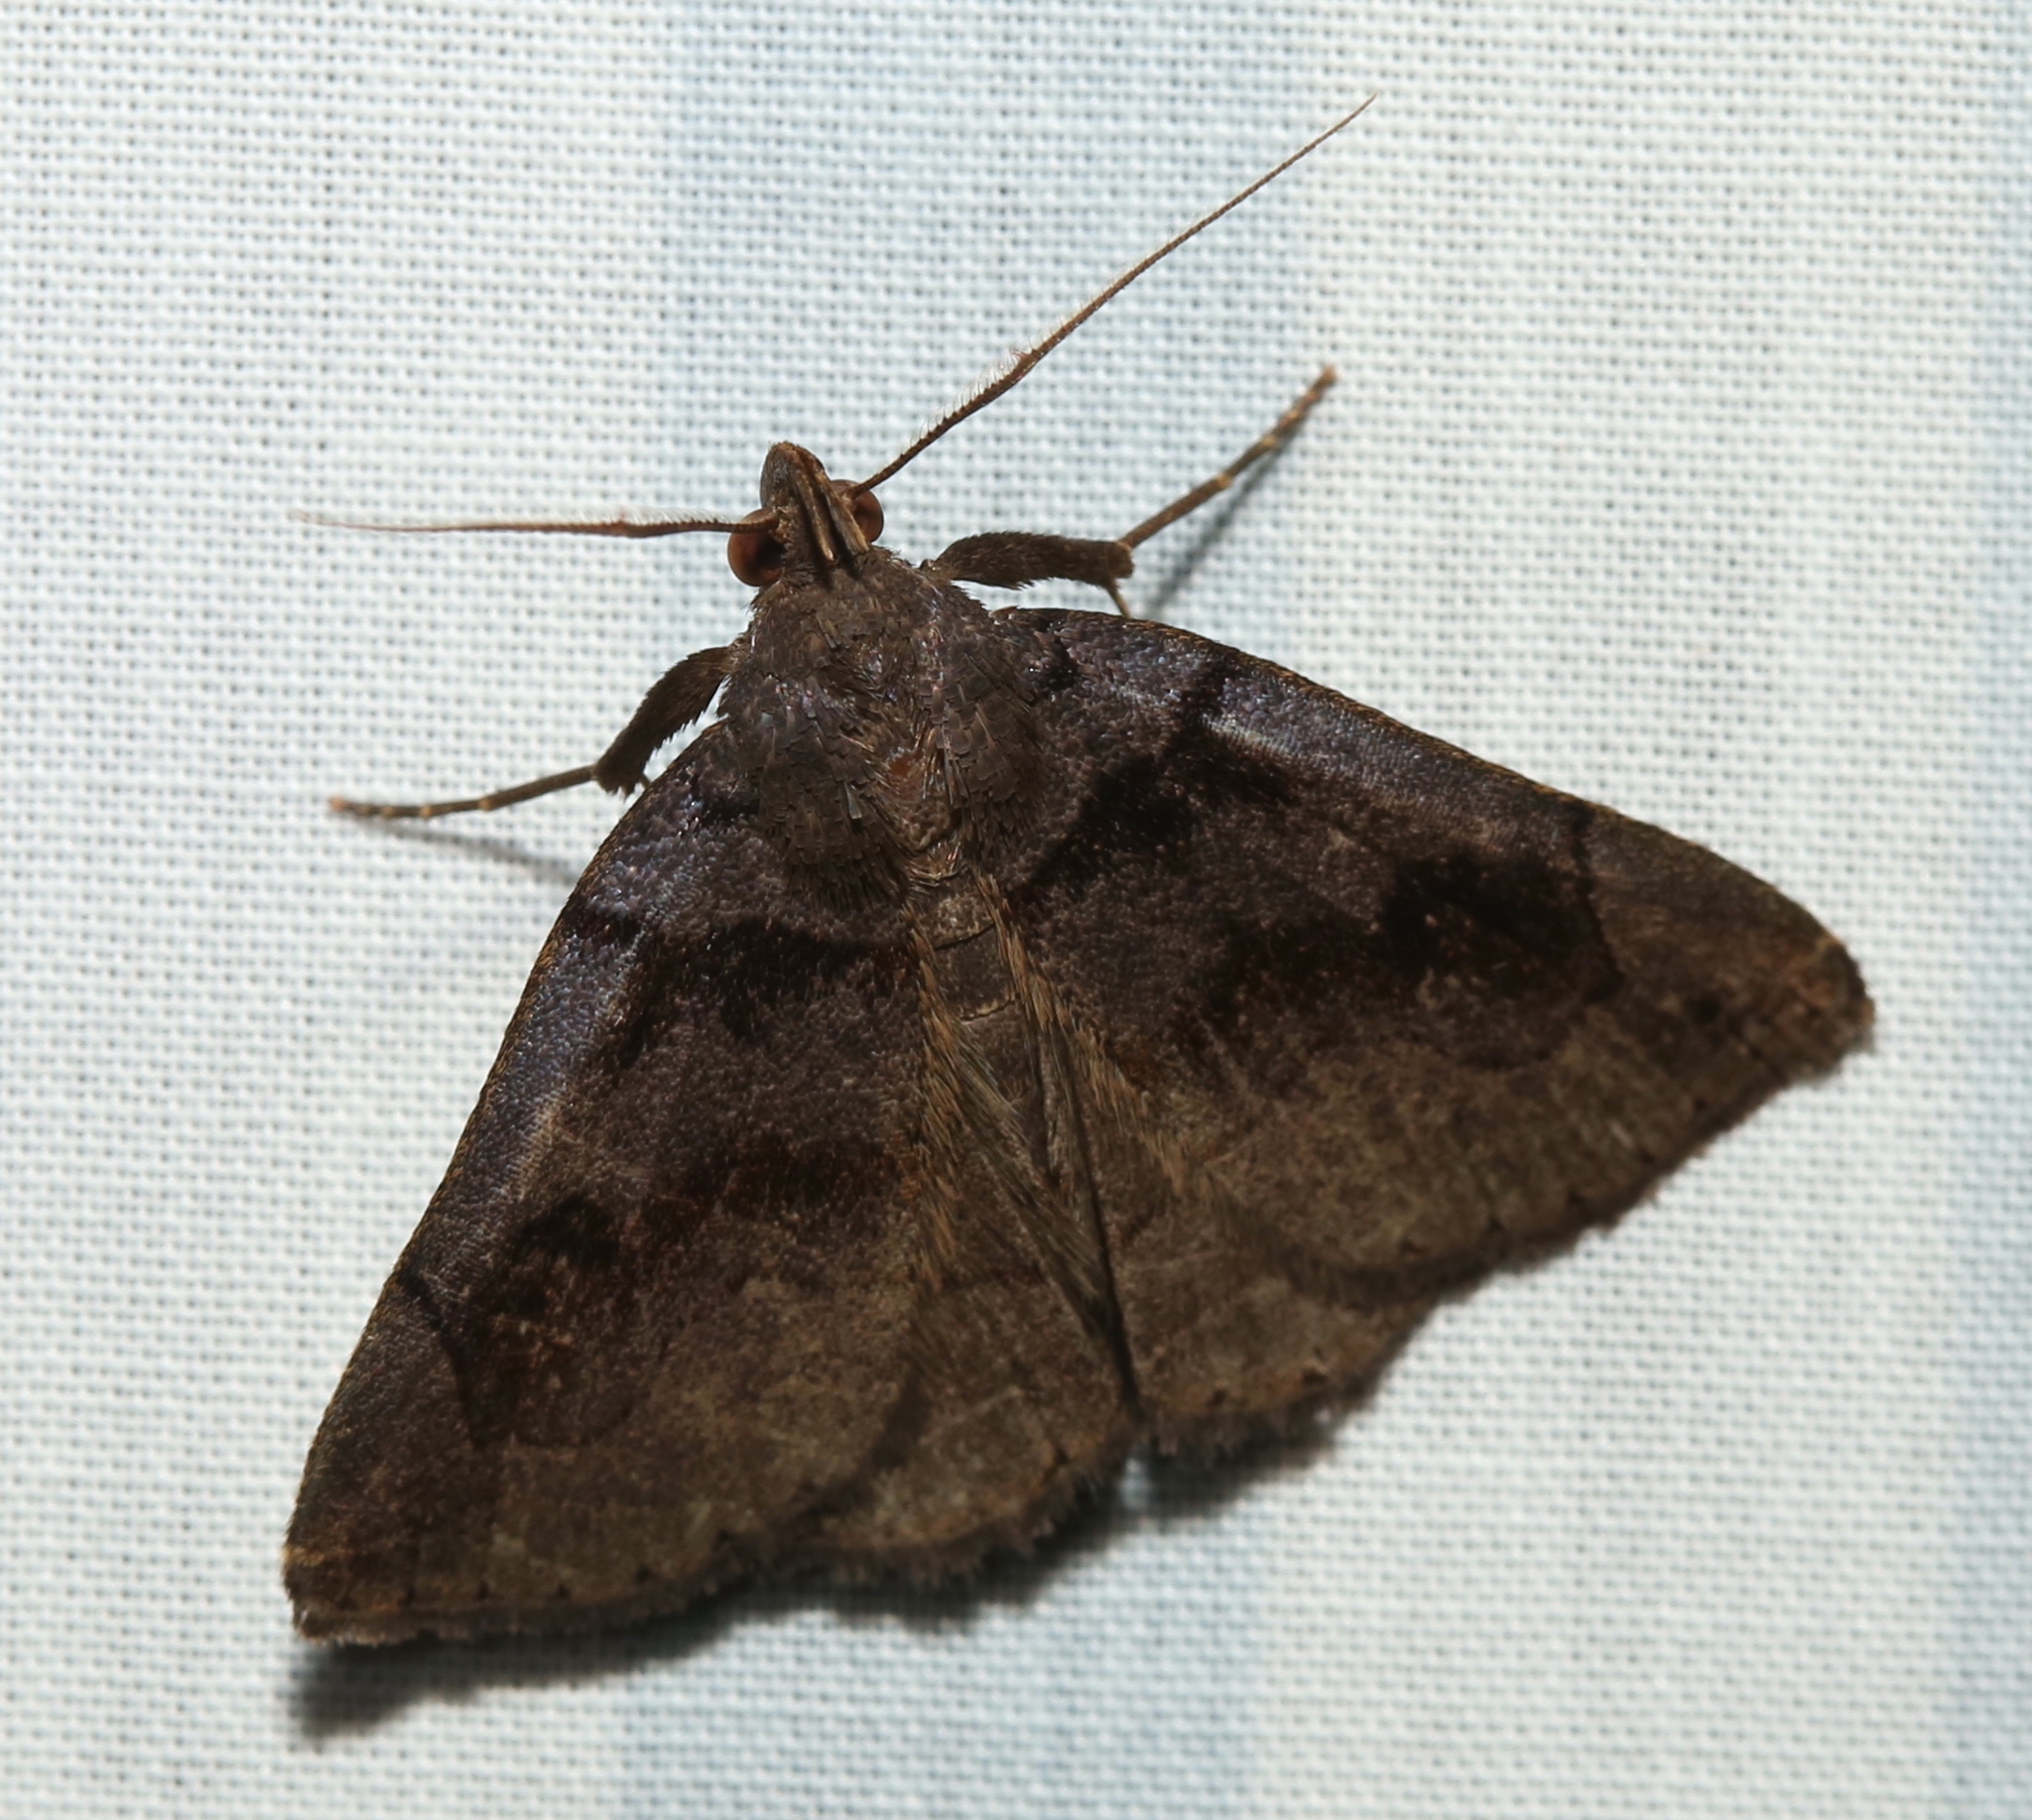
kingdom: Animalia
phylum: Arthropoda
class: Insecta
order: Lepidoptera
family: Erebidae
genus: Zanclognatha
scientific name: Zanclognatha laevigata
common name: Variable fan-foot
